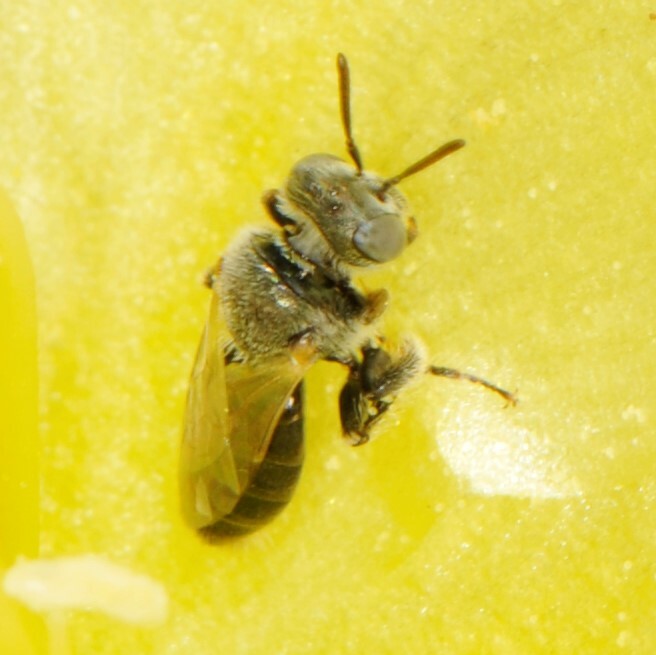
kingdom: Animalia
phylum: Arthropoda
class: Insecta
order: Hymenoptera
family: Andrenidae
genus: Macrotera
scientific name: Macrotera
